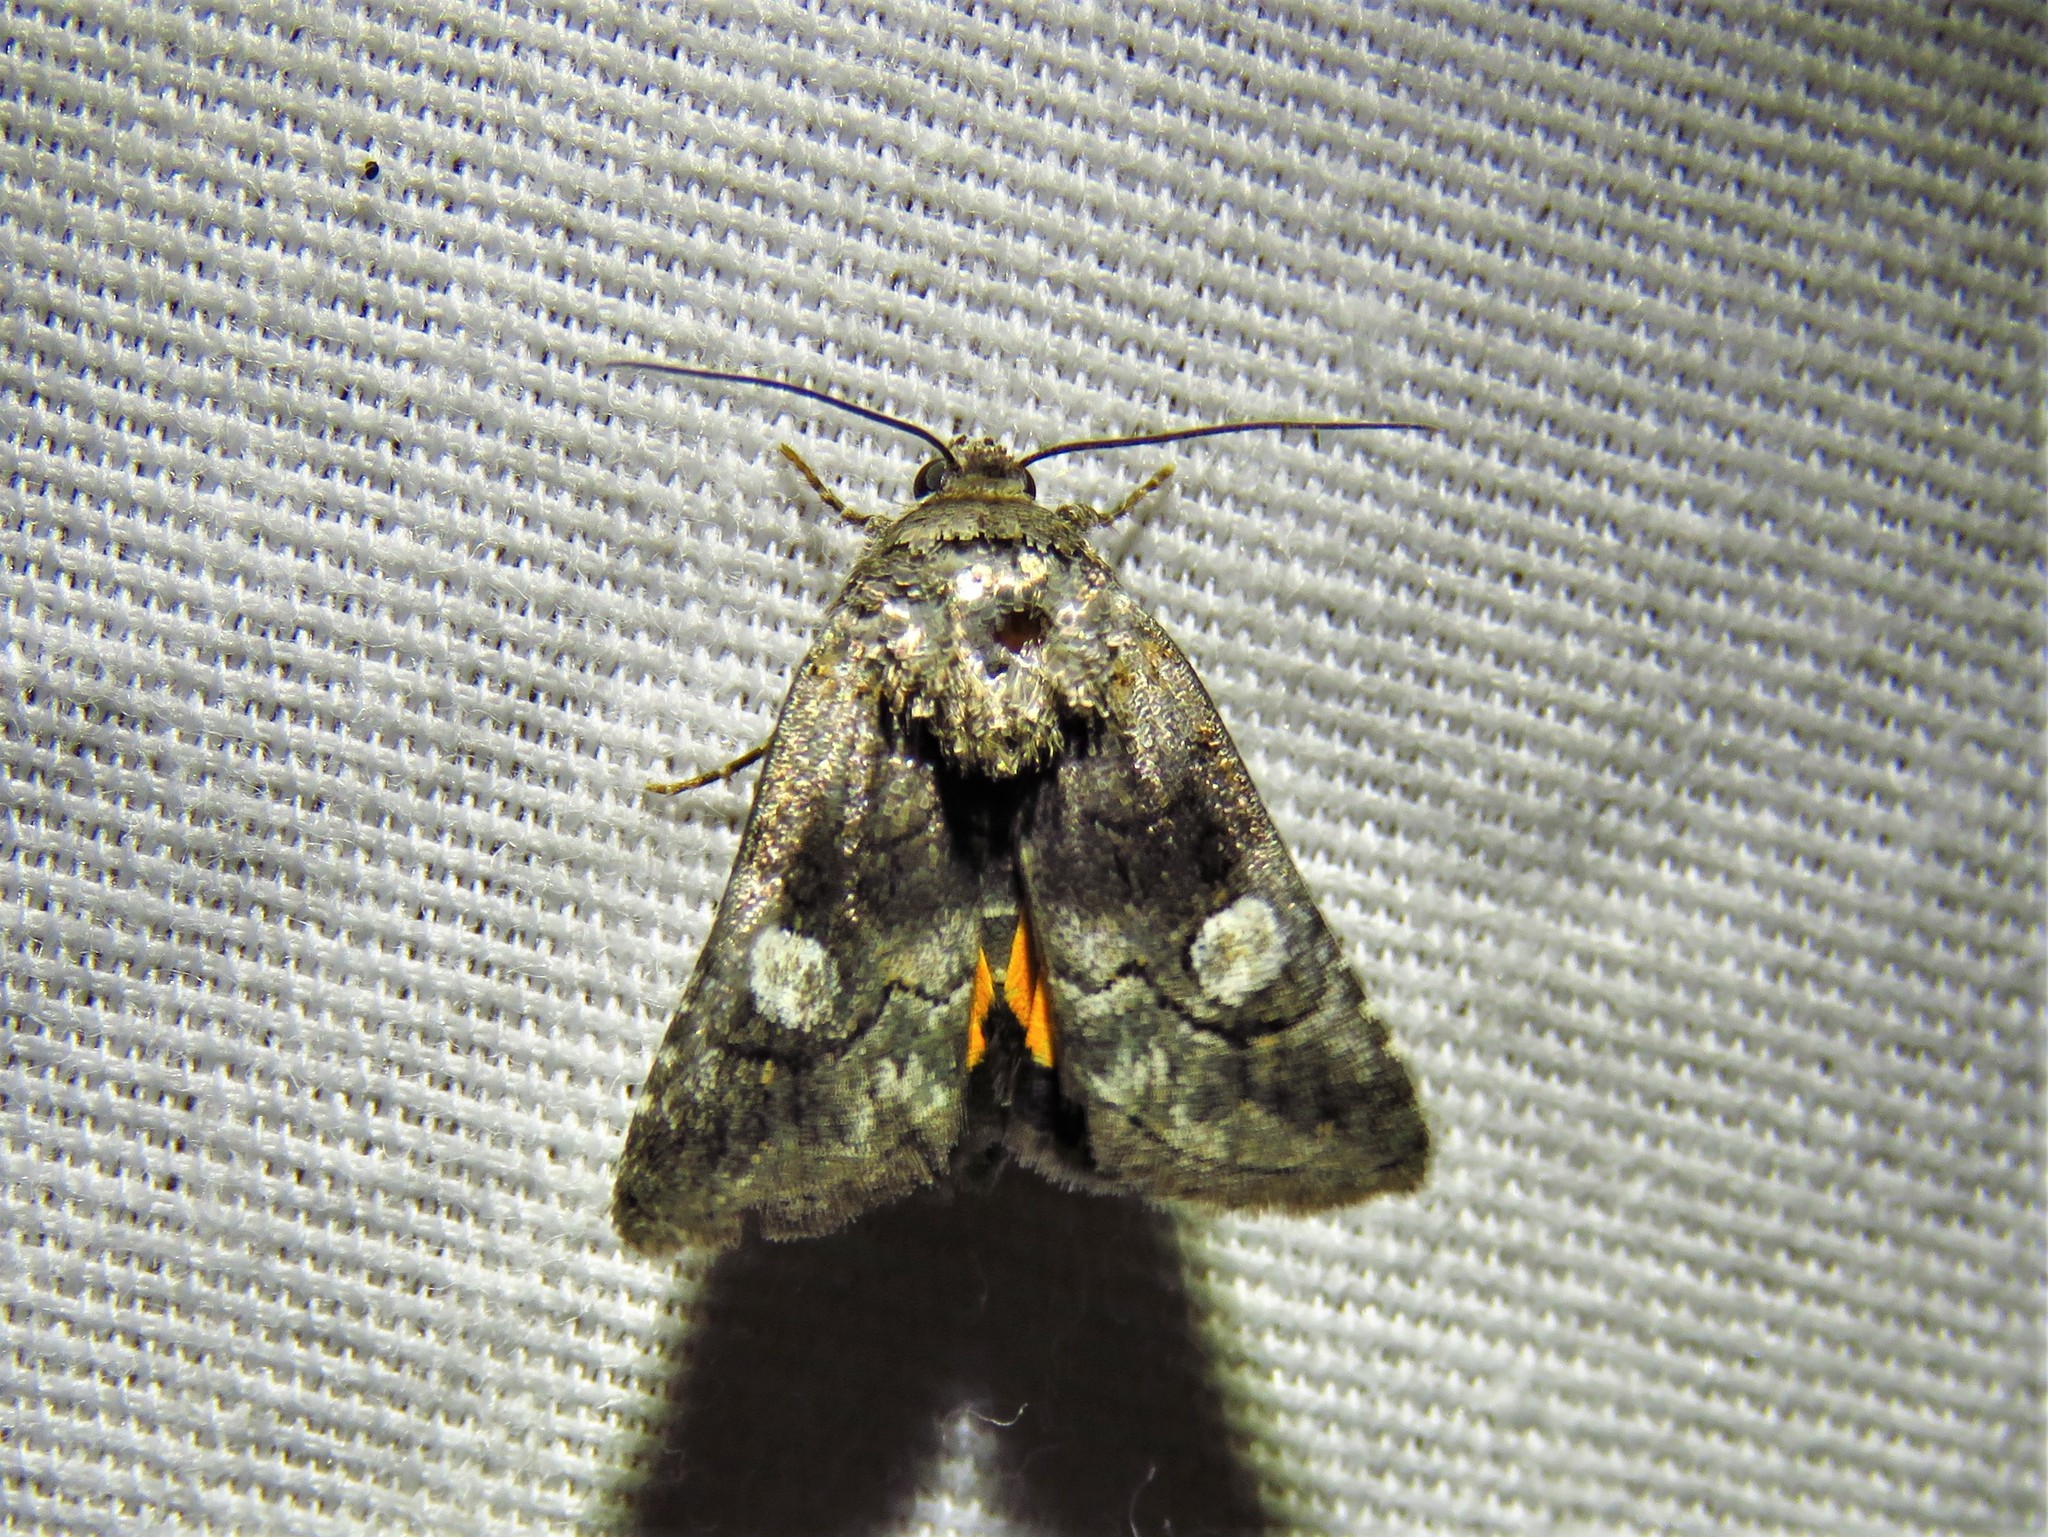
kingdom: Animalia
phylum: Arthropoda
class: Insecta
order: Lepidoptera
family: Noctuidae
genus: Copanarta
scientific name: Copanarta aurea
